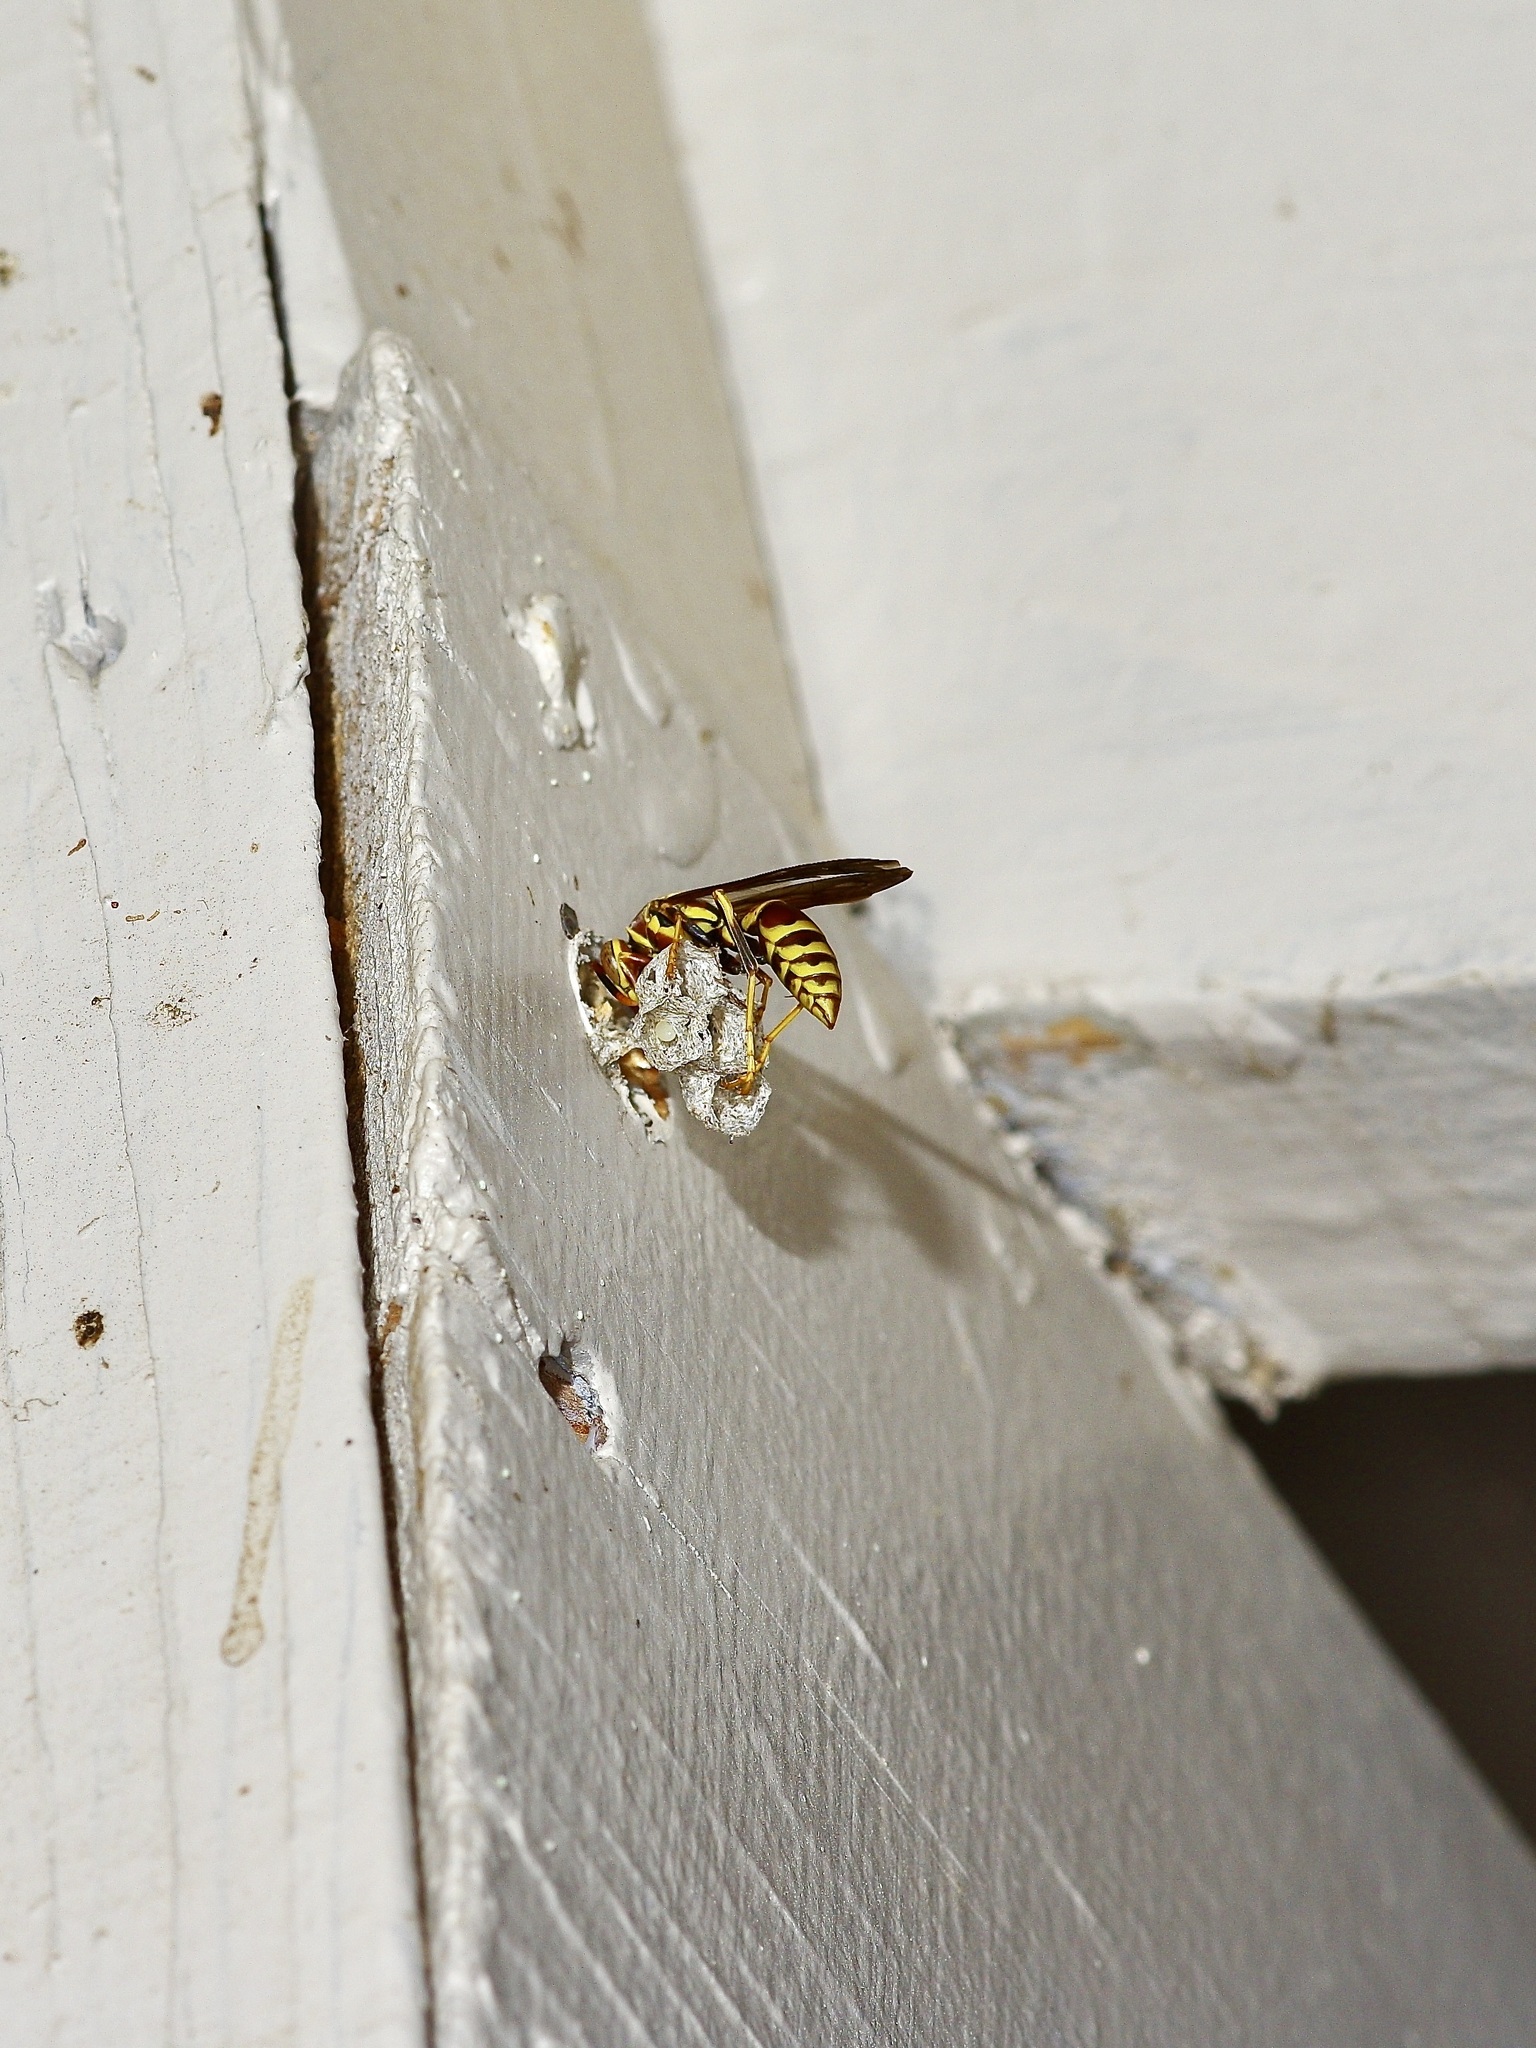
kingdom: Animalia
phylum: Arthropoda
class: Insecta
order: Hymenoptera
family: Eumenidae
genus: Polistes
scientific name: Polistes exclamans
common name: Paper wasp
